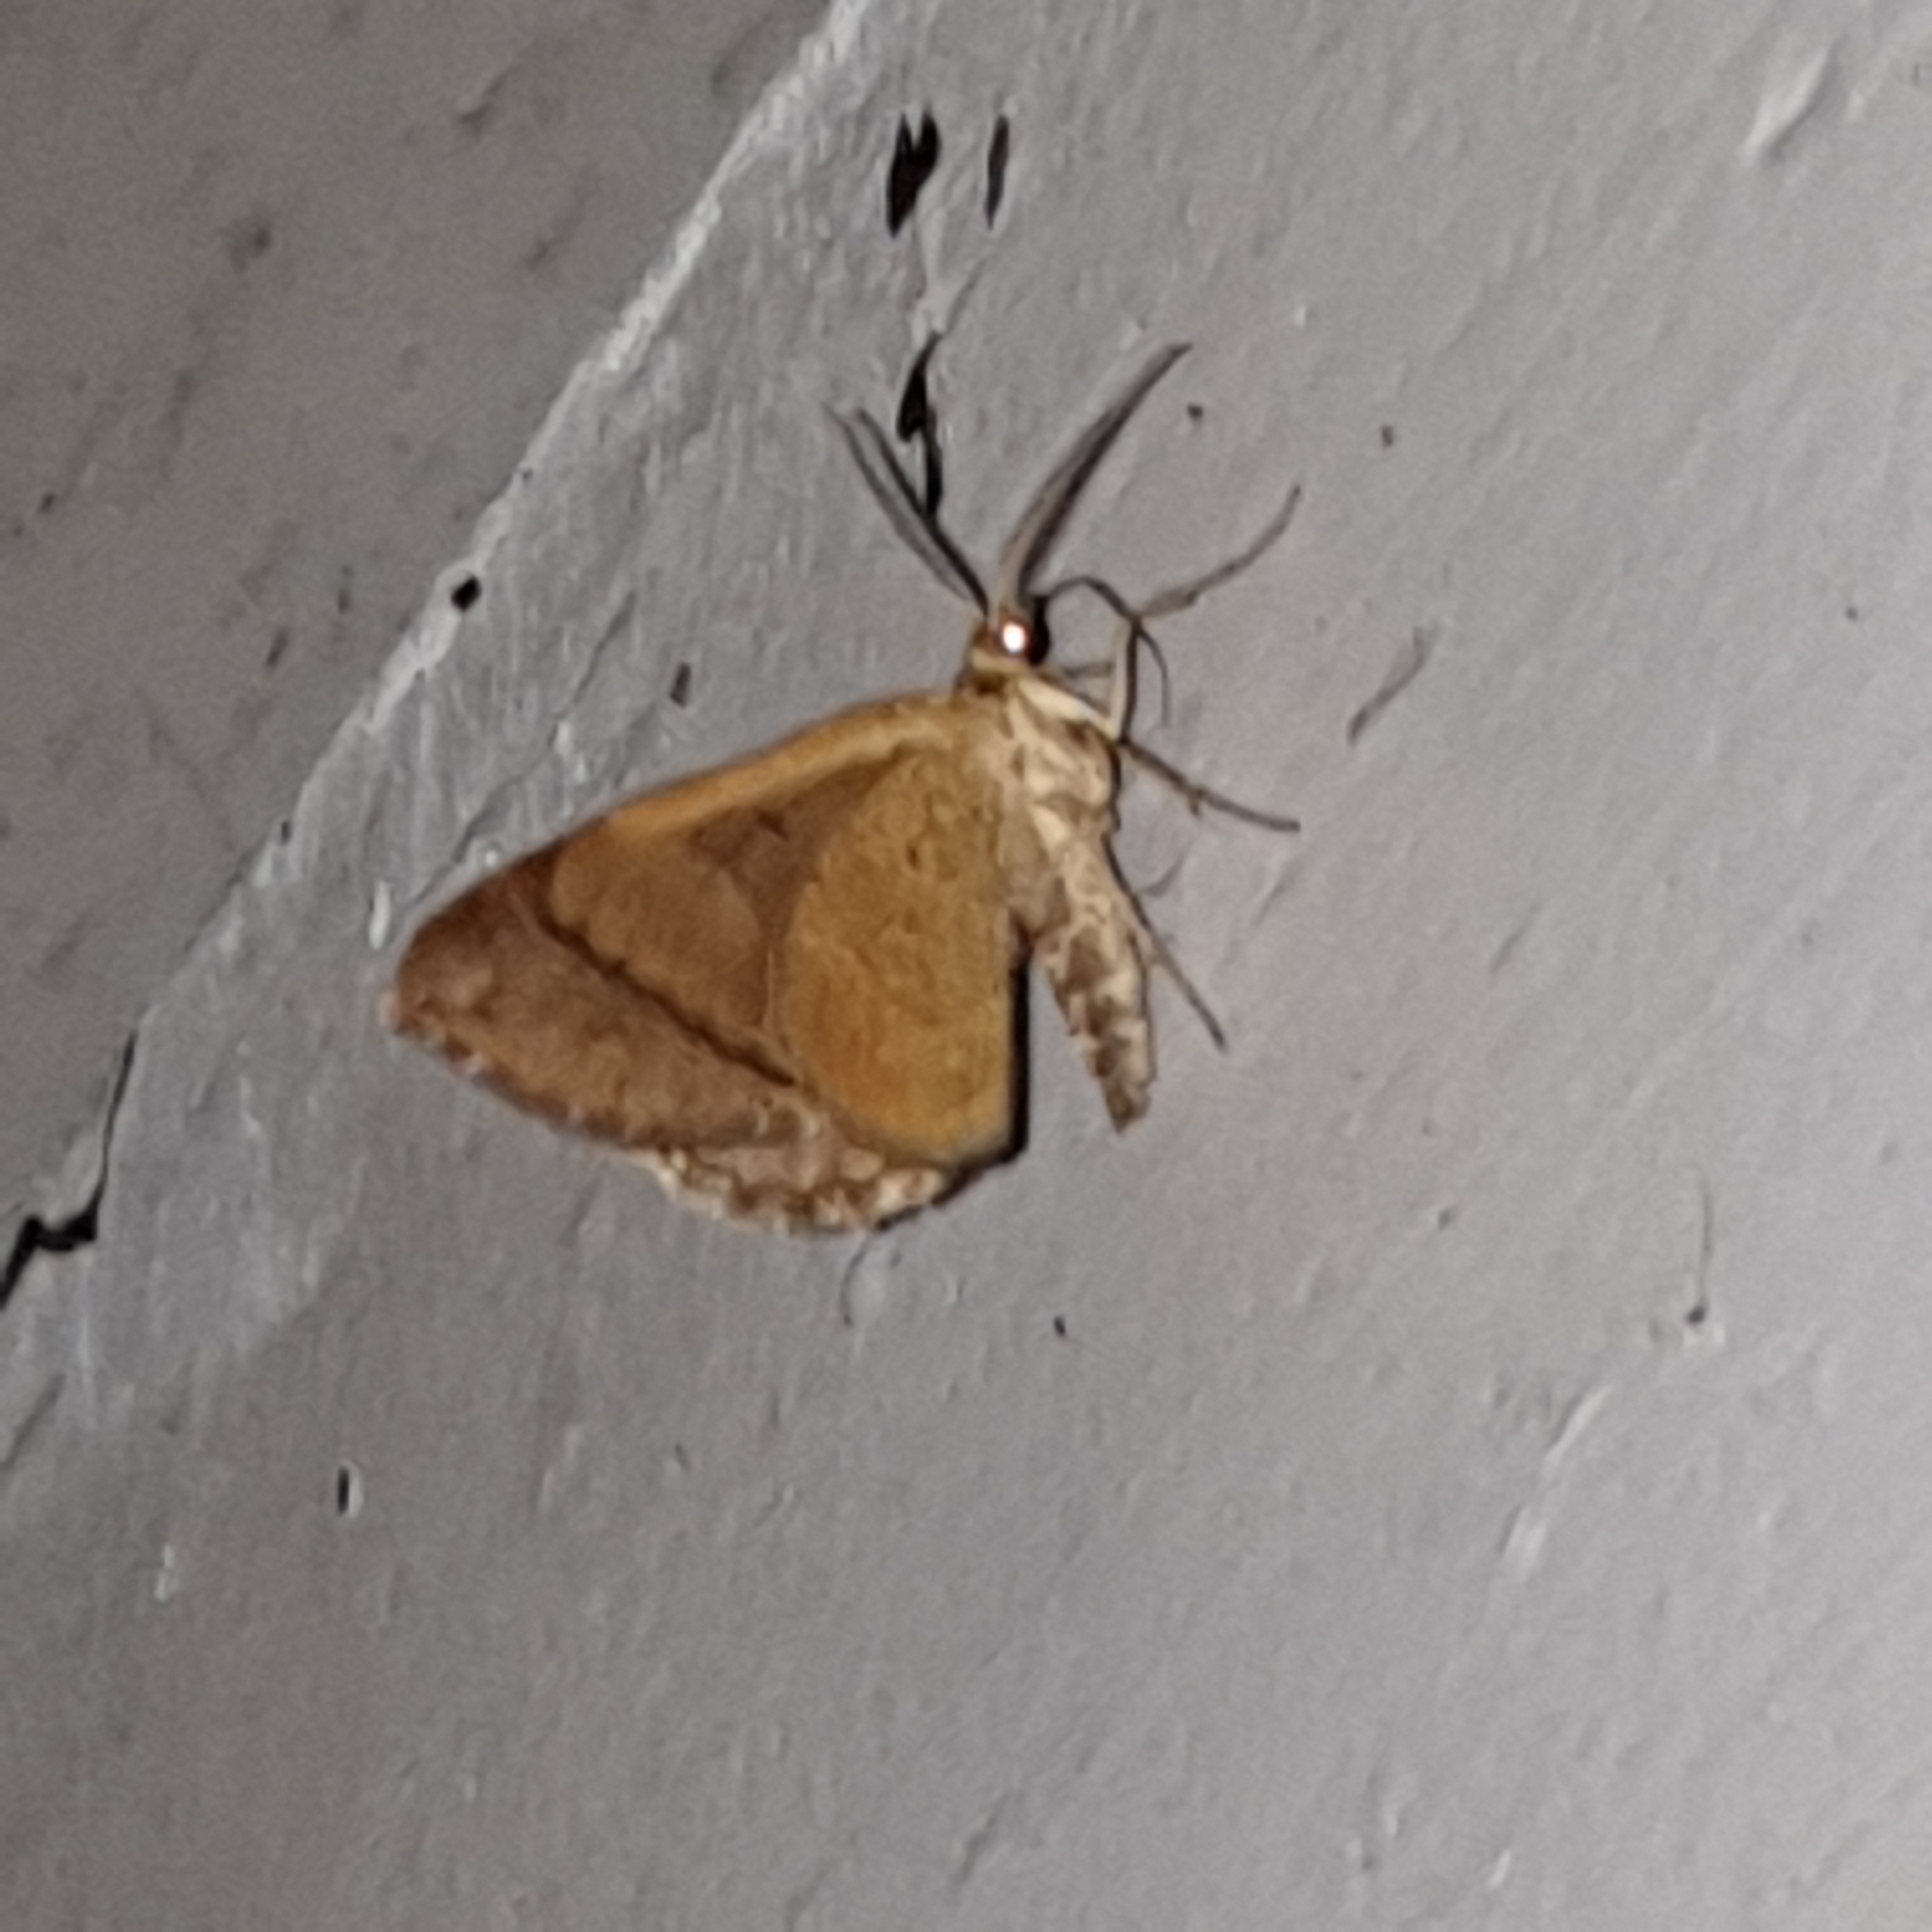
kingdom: Animalia
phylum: Arthropoda
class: Insecta
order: Lepidoptera
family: Geometridae
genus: Scotopteryx
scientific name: Scotopteryx chenopodiata
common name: Shaded broad-bar
